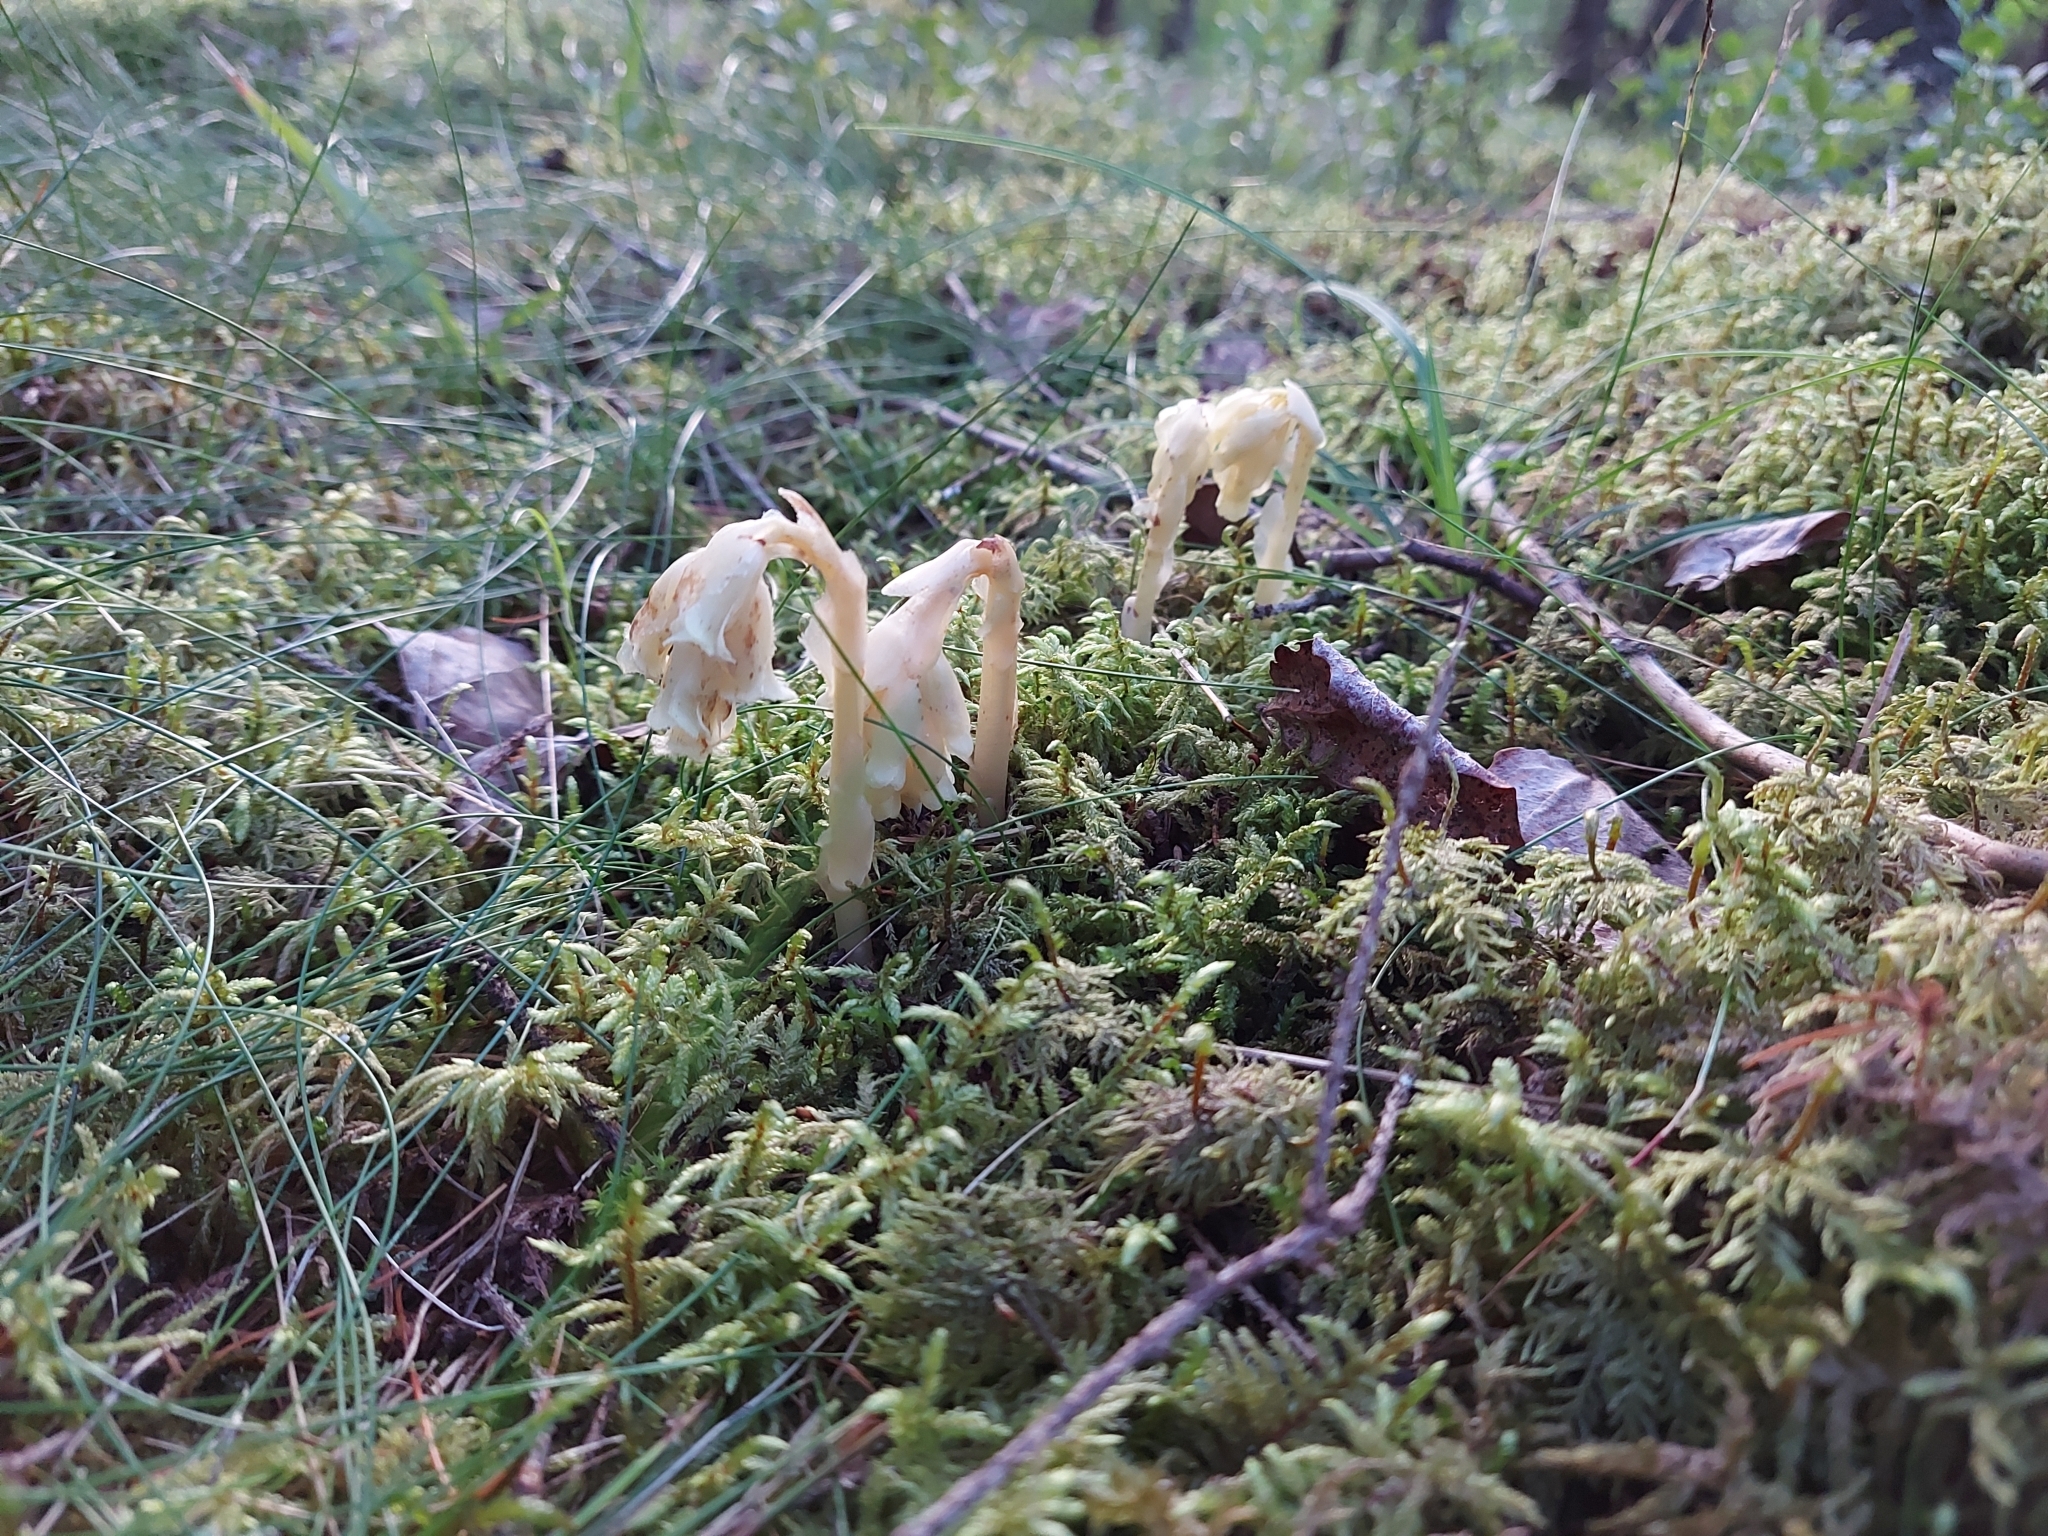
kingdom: Plantae
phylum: Tracheophyta
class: Magnoliopsida
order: Ericales
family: Ericaceae
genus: Hypopitys
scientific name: Hypopitys monotropa
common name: Yellow bird's-nest
